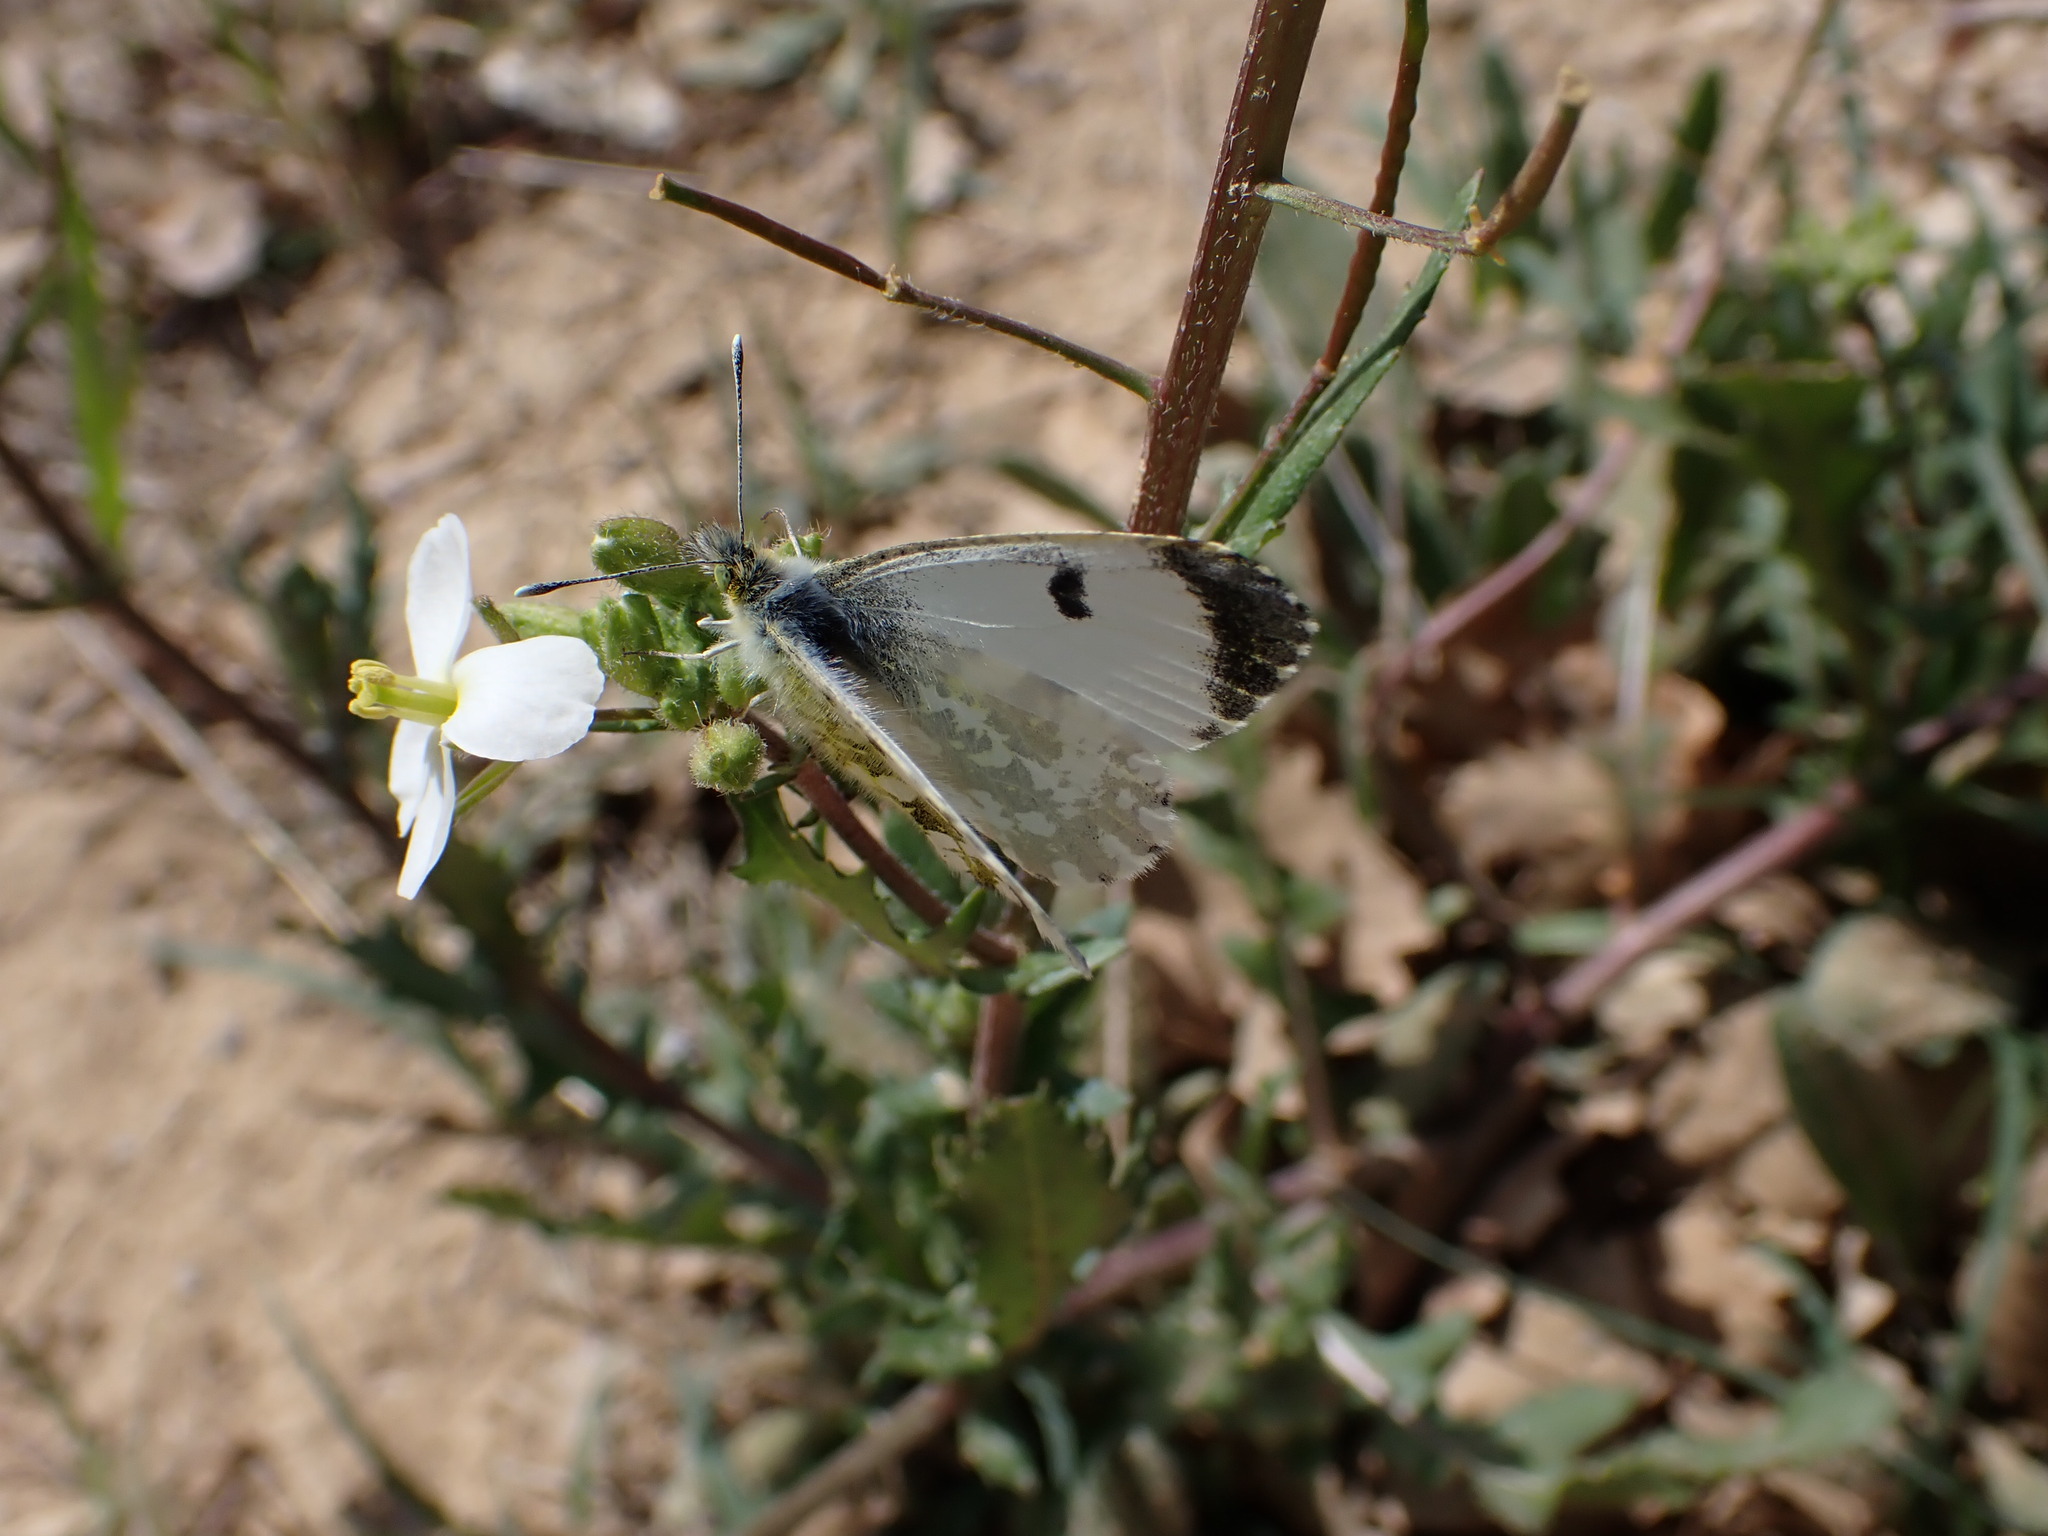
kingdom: Animalia
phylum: Arthropoda
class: Insecta
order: Lepidoptera
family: Pieridae
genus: Anthocharis
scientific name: Anthocharis cardamines
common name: Orange-tip
